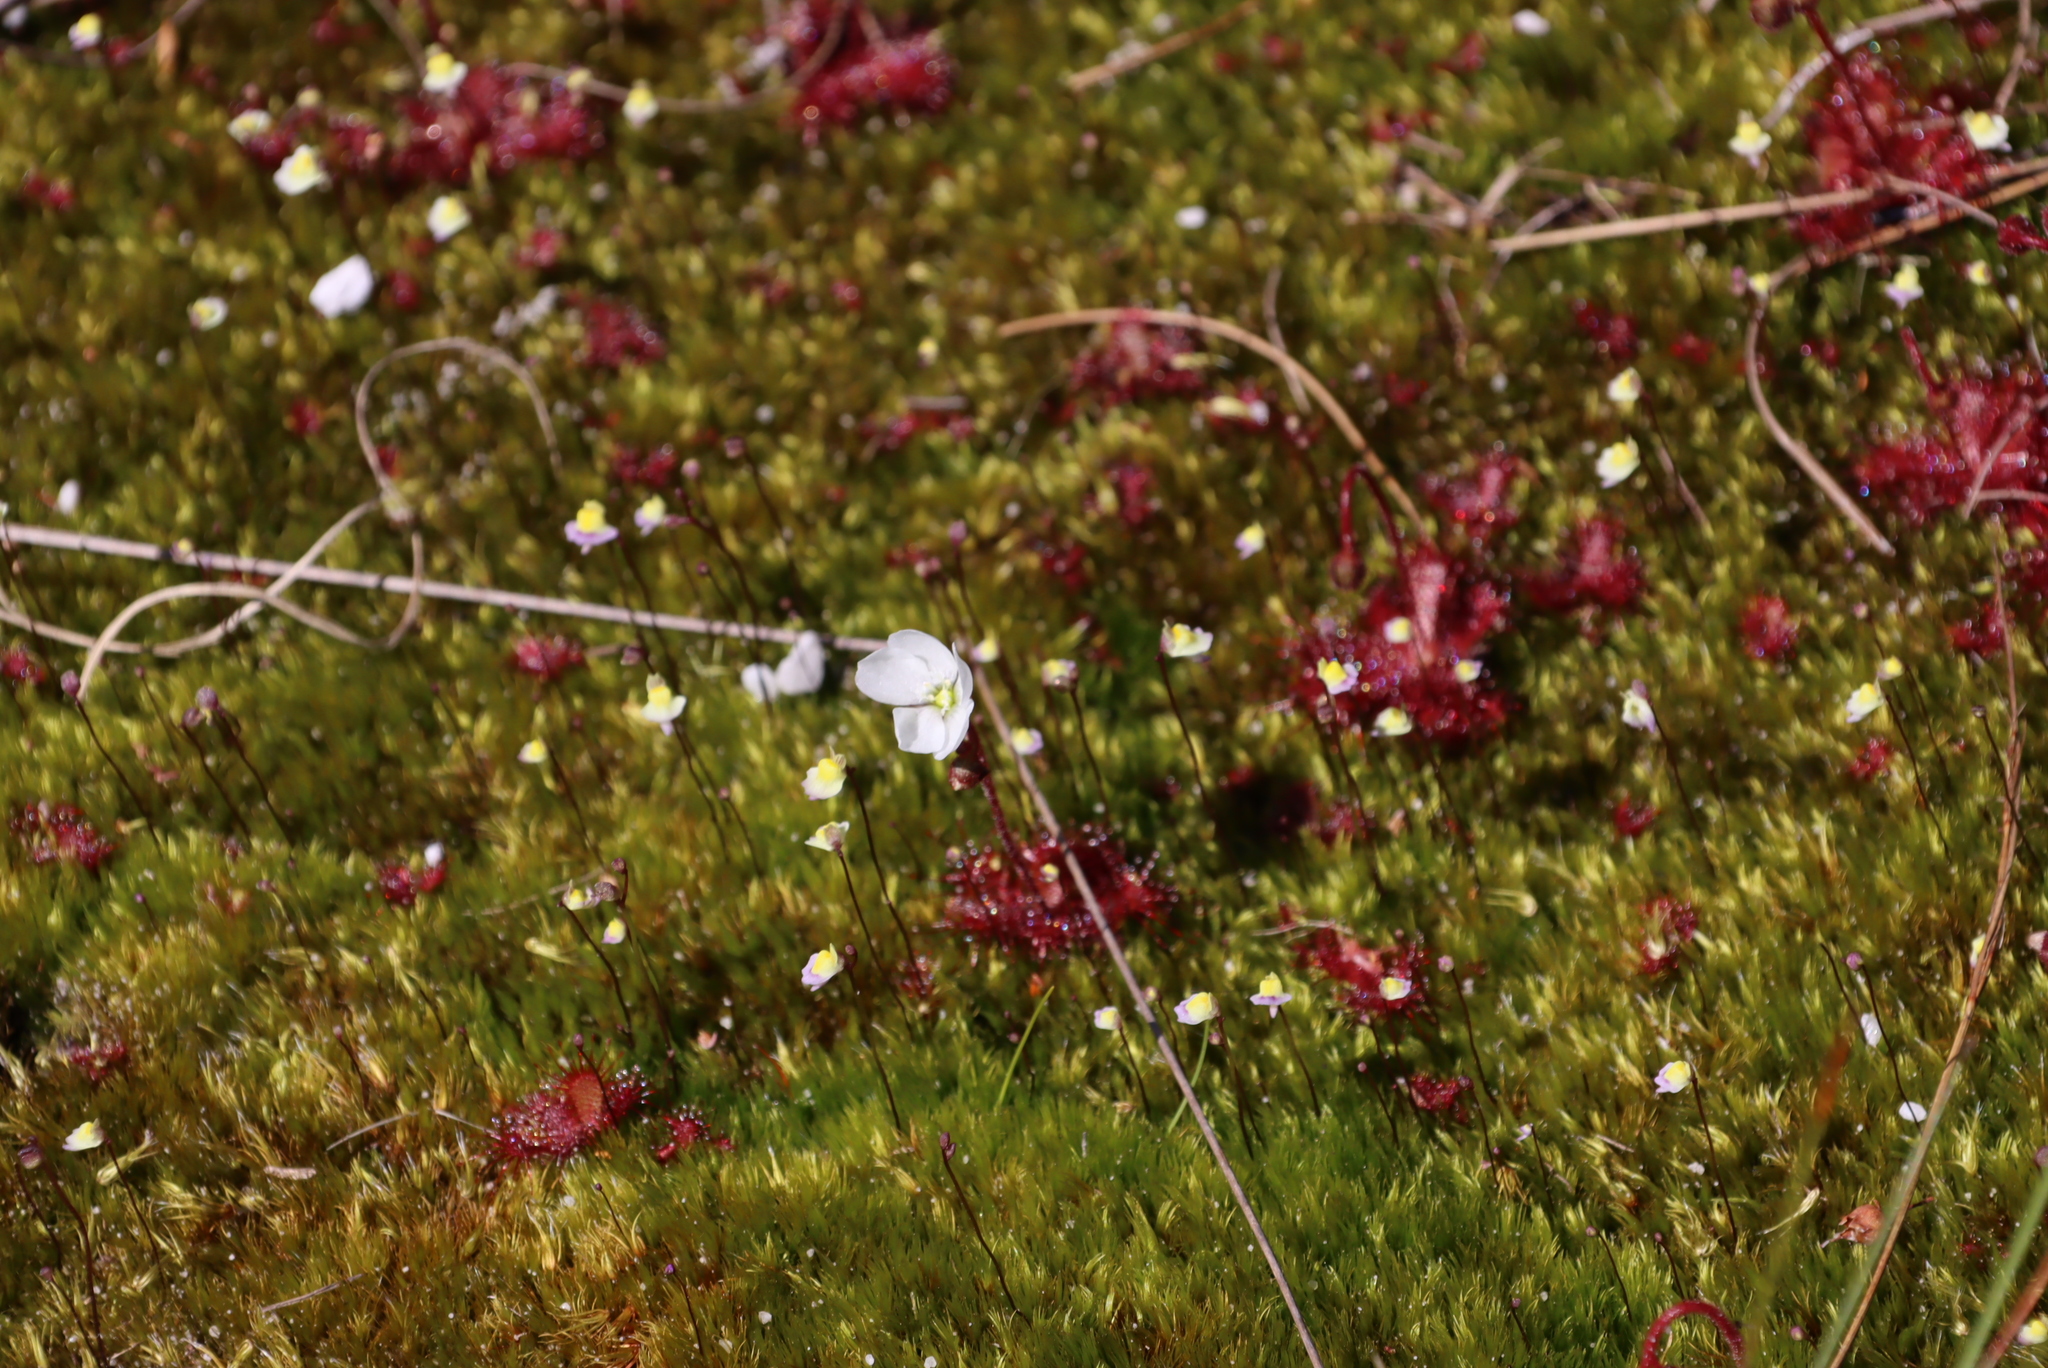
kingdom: Plantae
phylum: Tracheophyta
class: Magnoliopsida
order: Lamiales
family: Lentibulariaceae
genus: Utricularia
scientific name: Utricularia bisquamata
